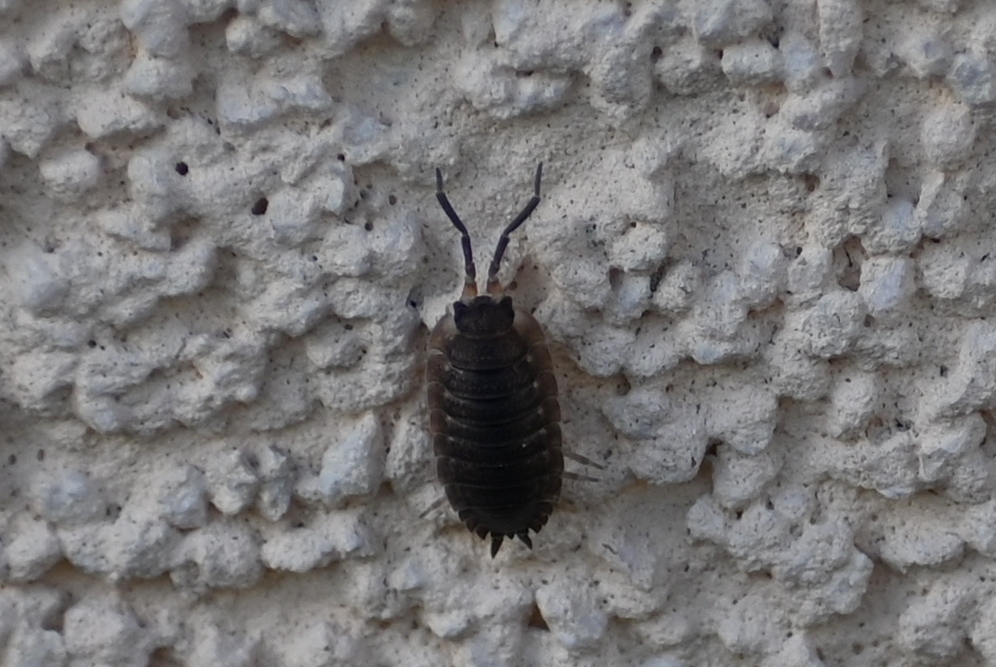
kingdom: Animalia
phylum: Arthropoda
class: Malacostraca
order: Isopoda
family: Porcellionidae
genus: Porcellio
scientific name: Porcellio scaber
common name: Common rough woodlouse
